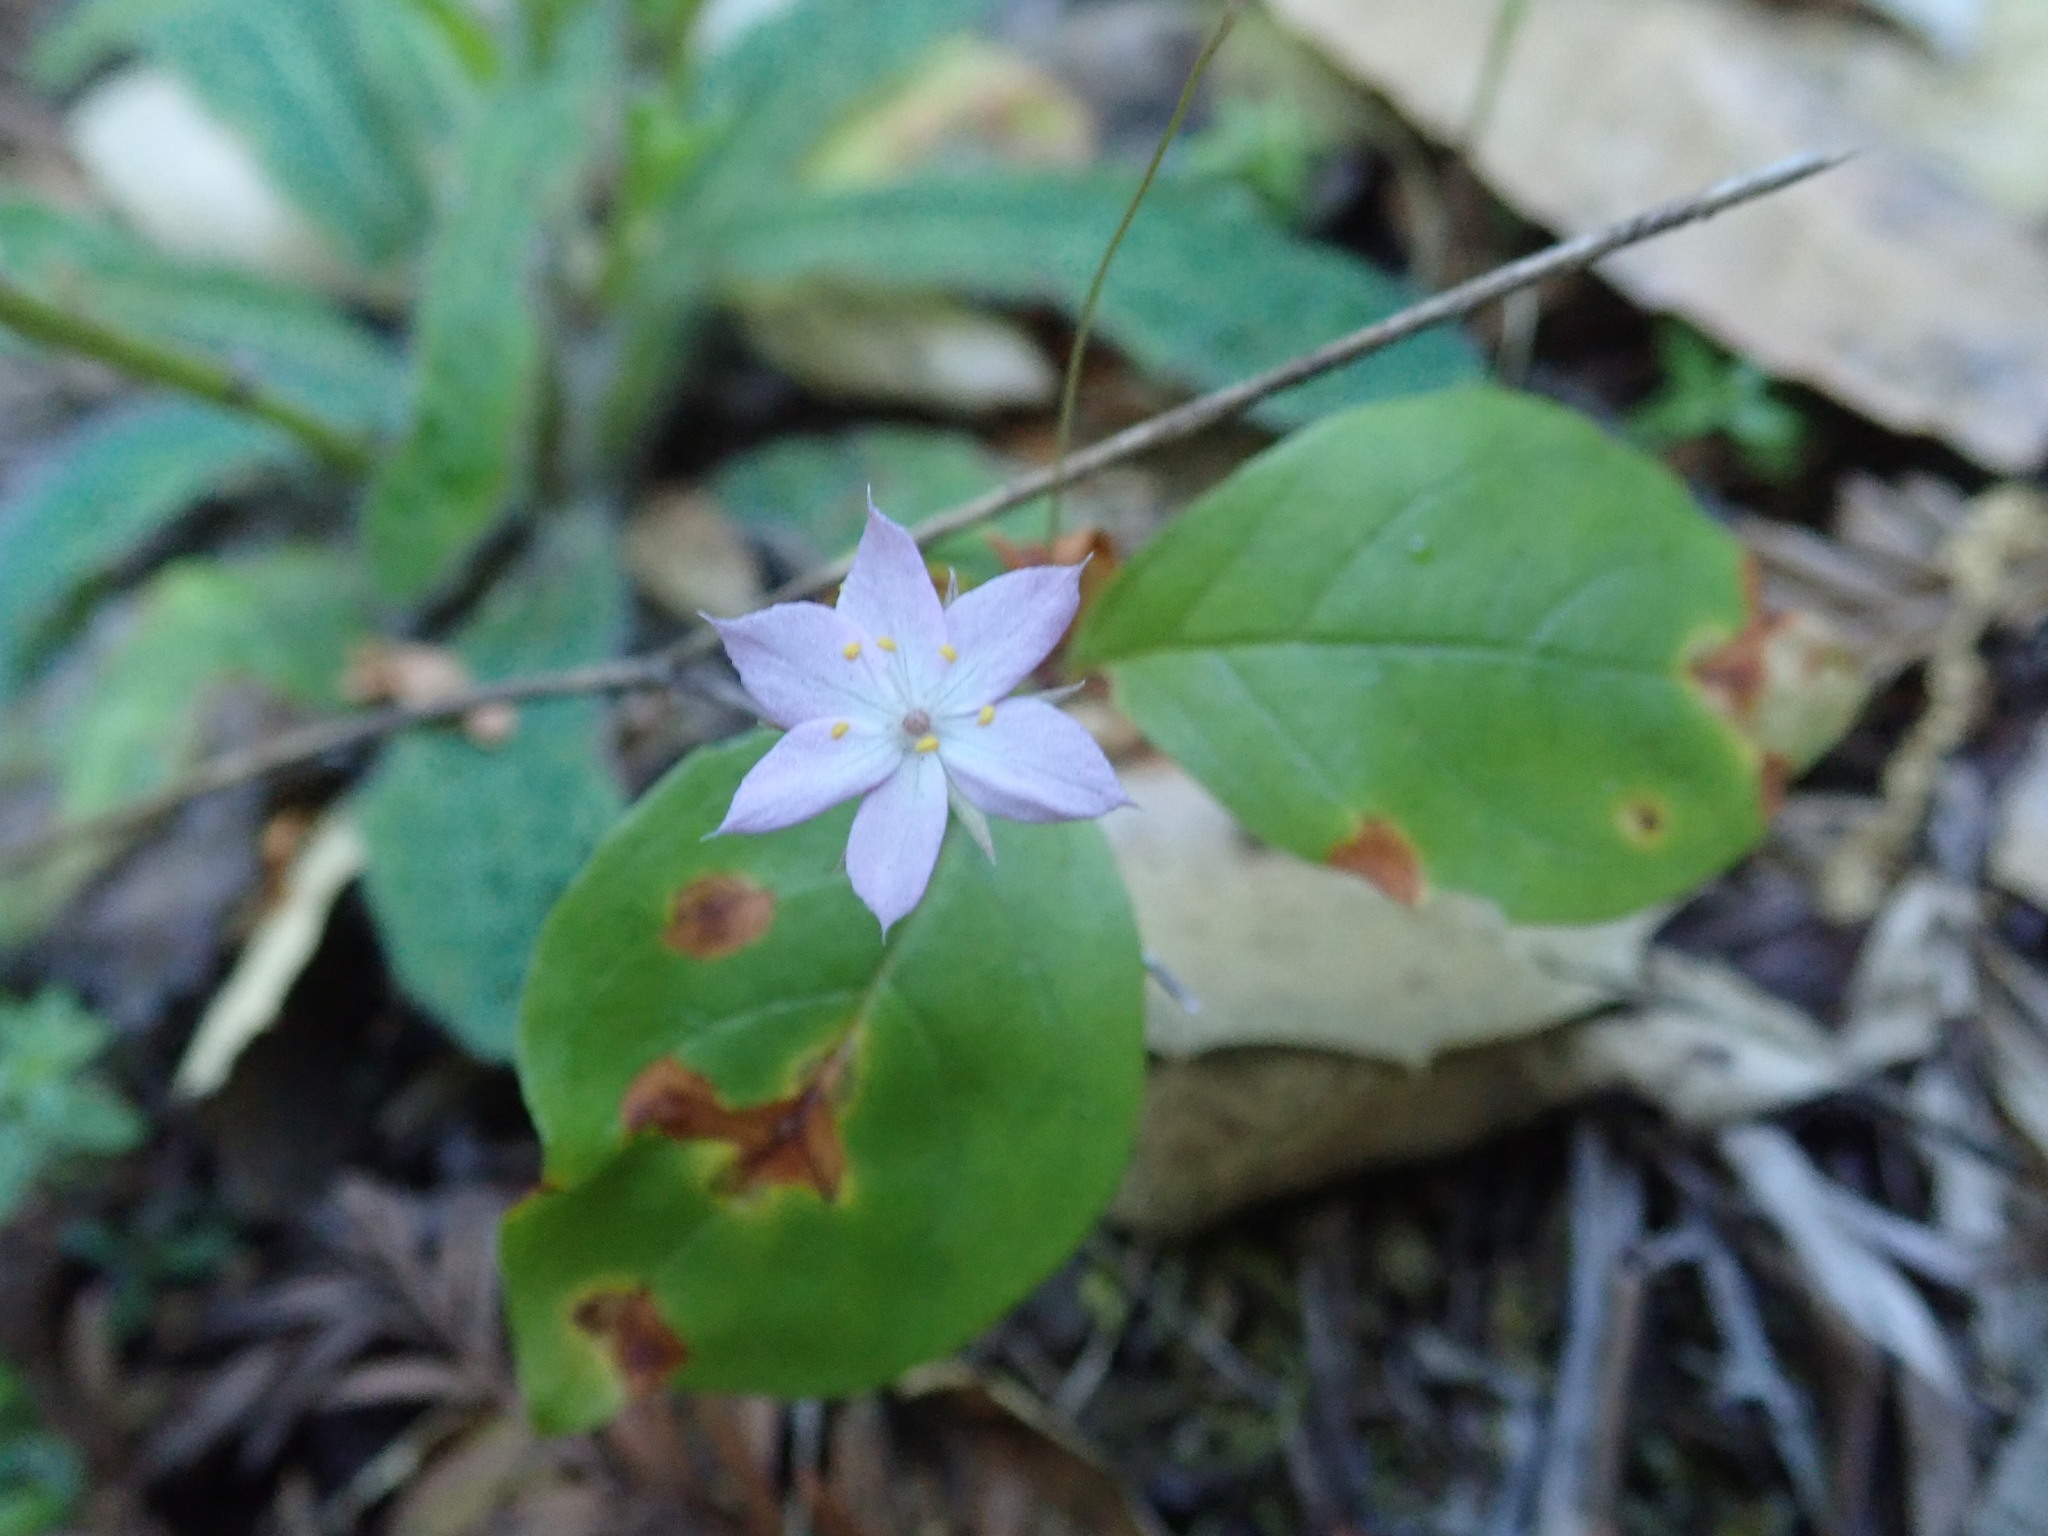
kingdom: Plantae
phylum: Tracheophyta
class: Magnoliopsida
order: Ericales
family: Primulaceae
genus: Lysimachia
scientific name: Lysimachia latifolia
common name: Pacific starflower
